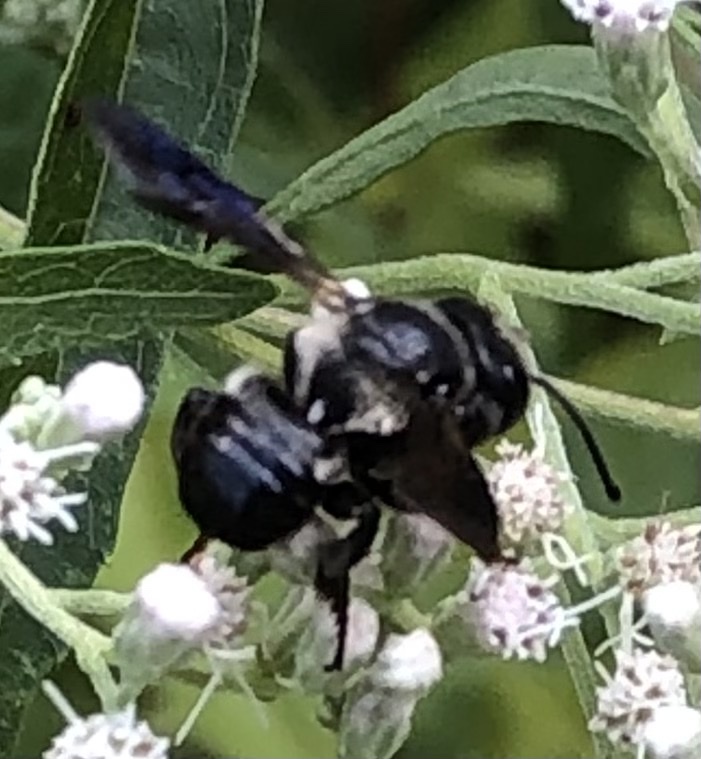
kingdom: Animalia
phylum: Arthropoda
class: Insecta
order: Hymenoptera
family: Megachilidae
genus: Megachile
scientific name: Megachile xylocopoides
